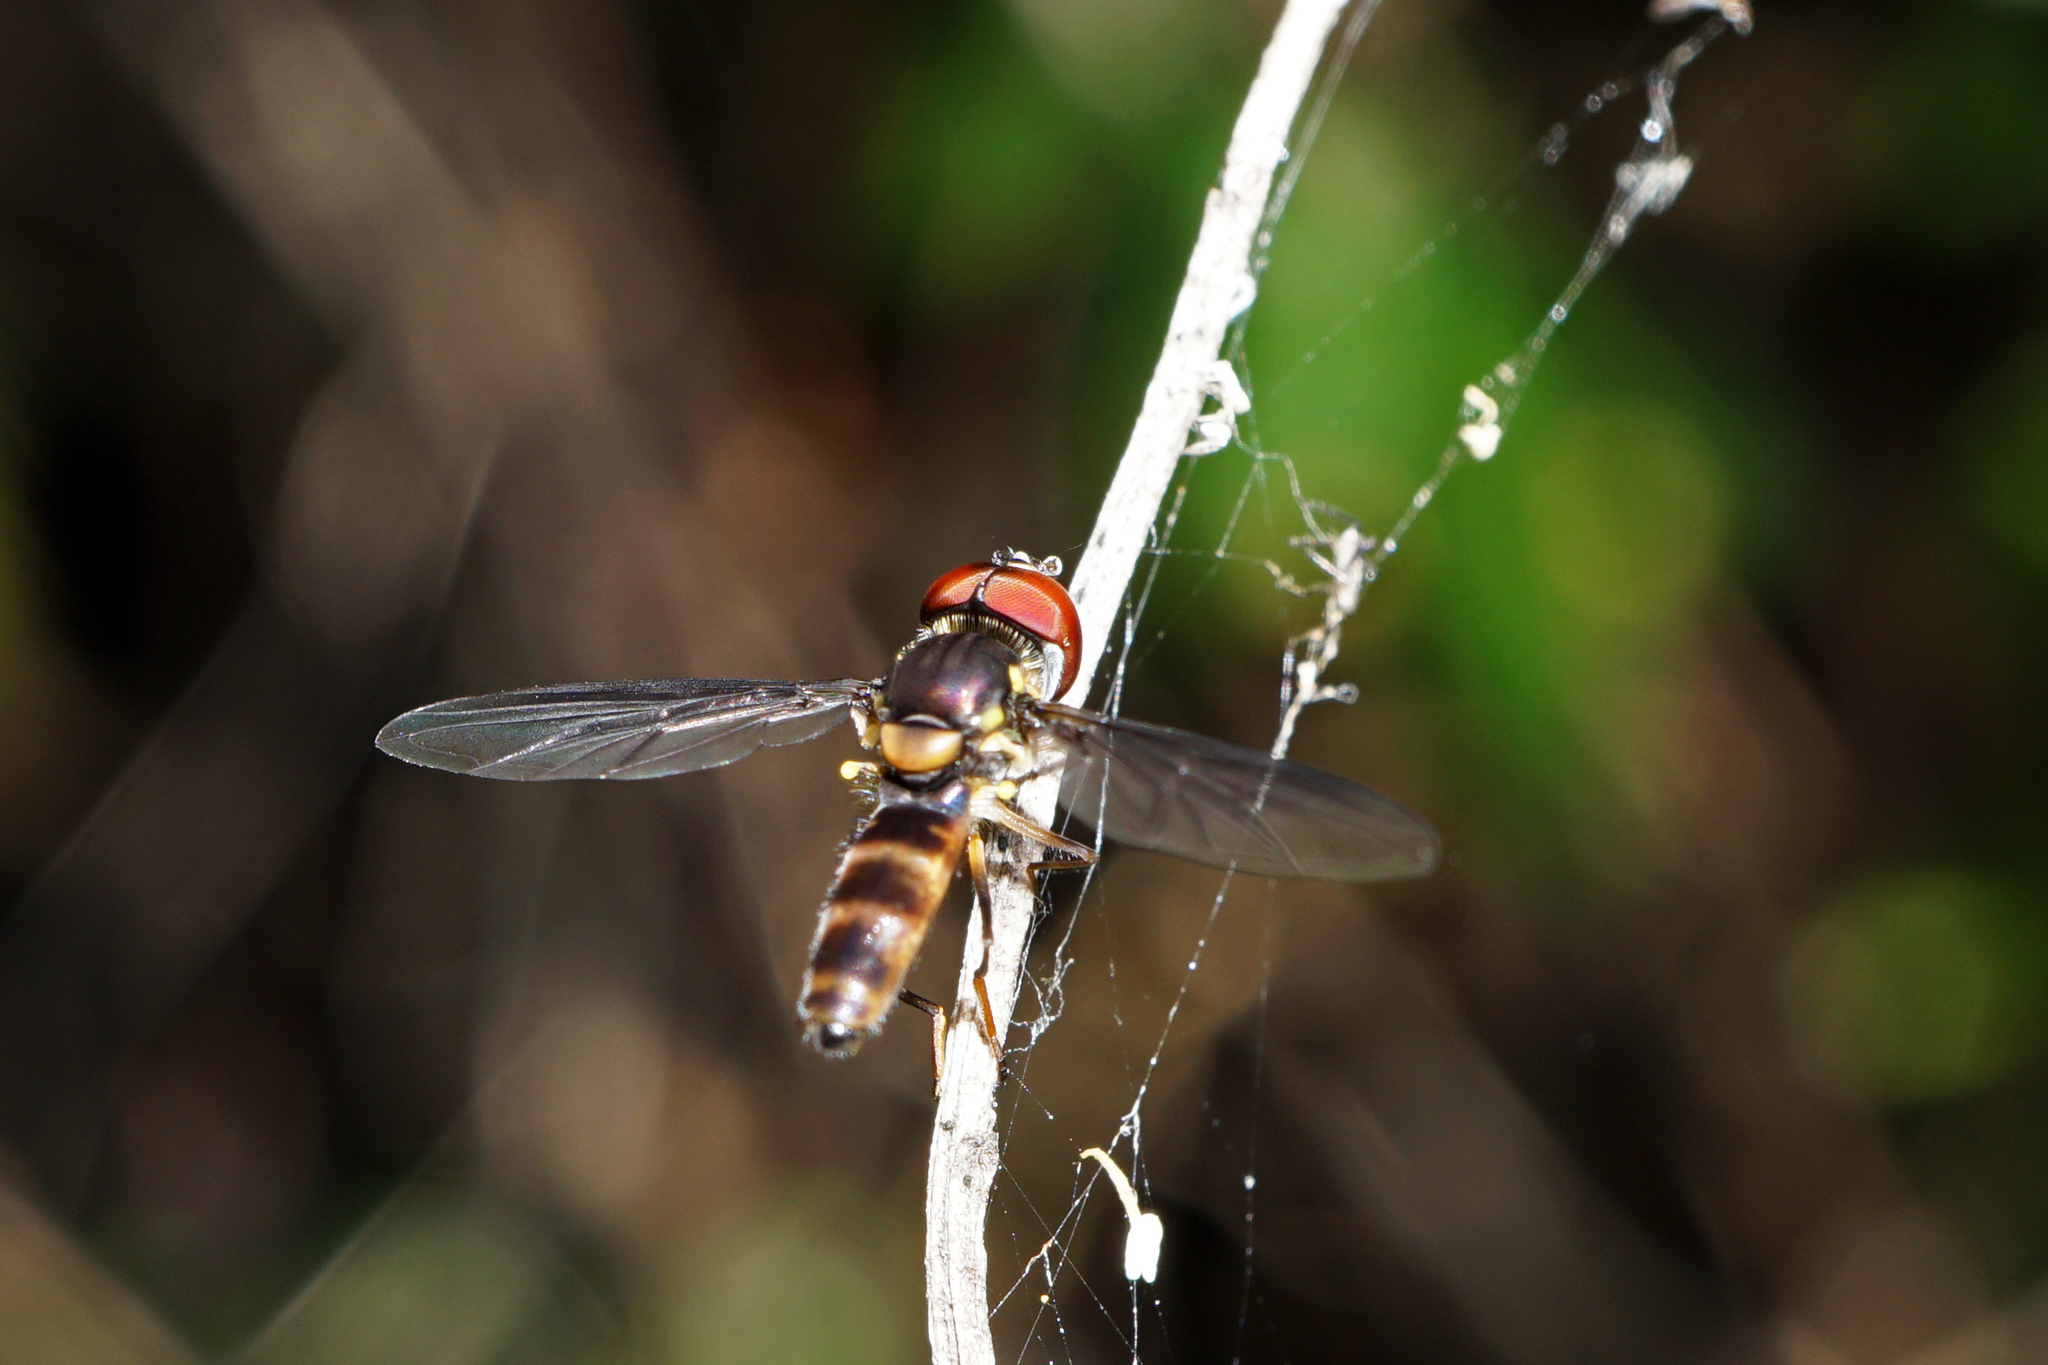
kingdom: Animalia
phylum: Arthropoda
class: Insecta
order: Diptera
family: Syrphidae
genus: Ocyptamus
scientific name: Ocyptamus antiphates
